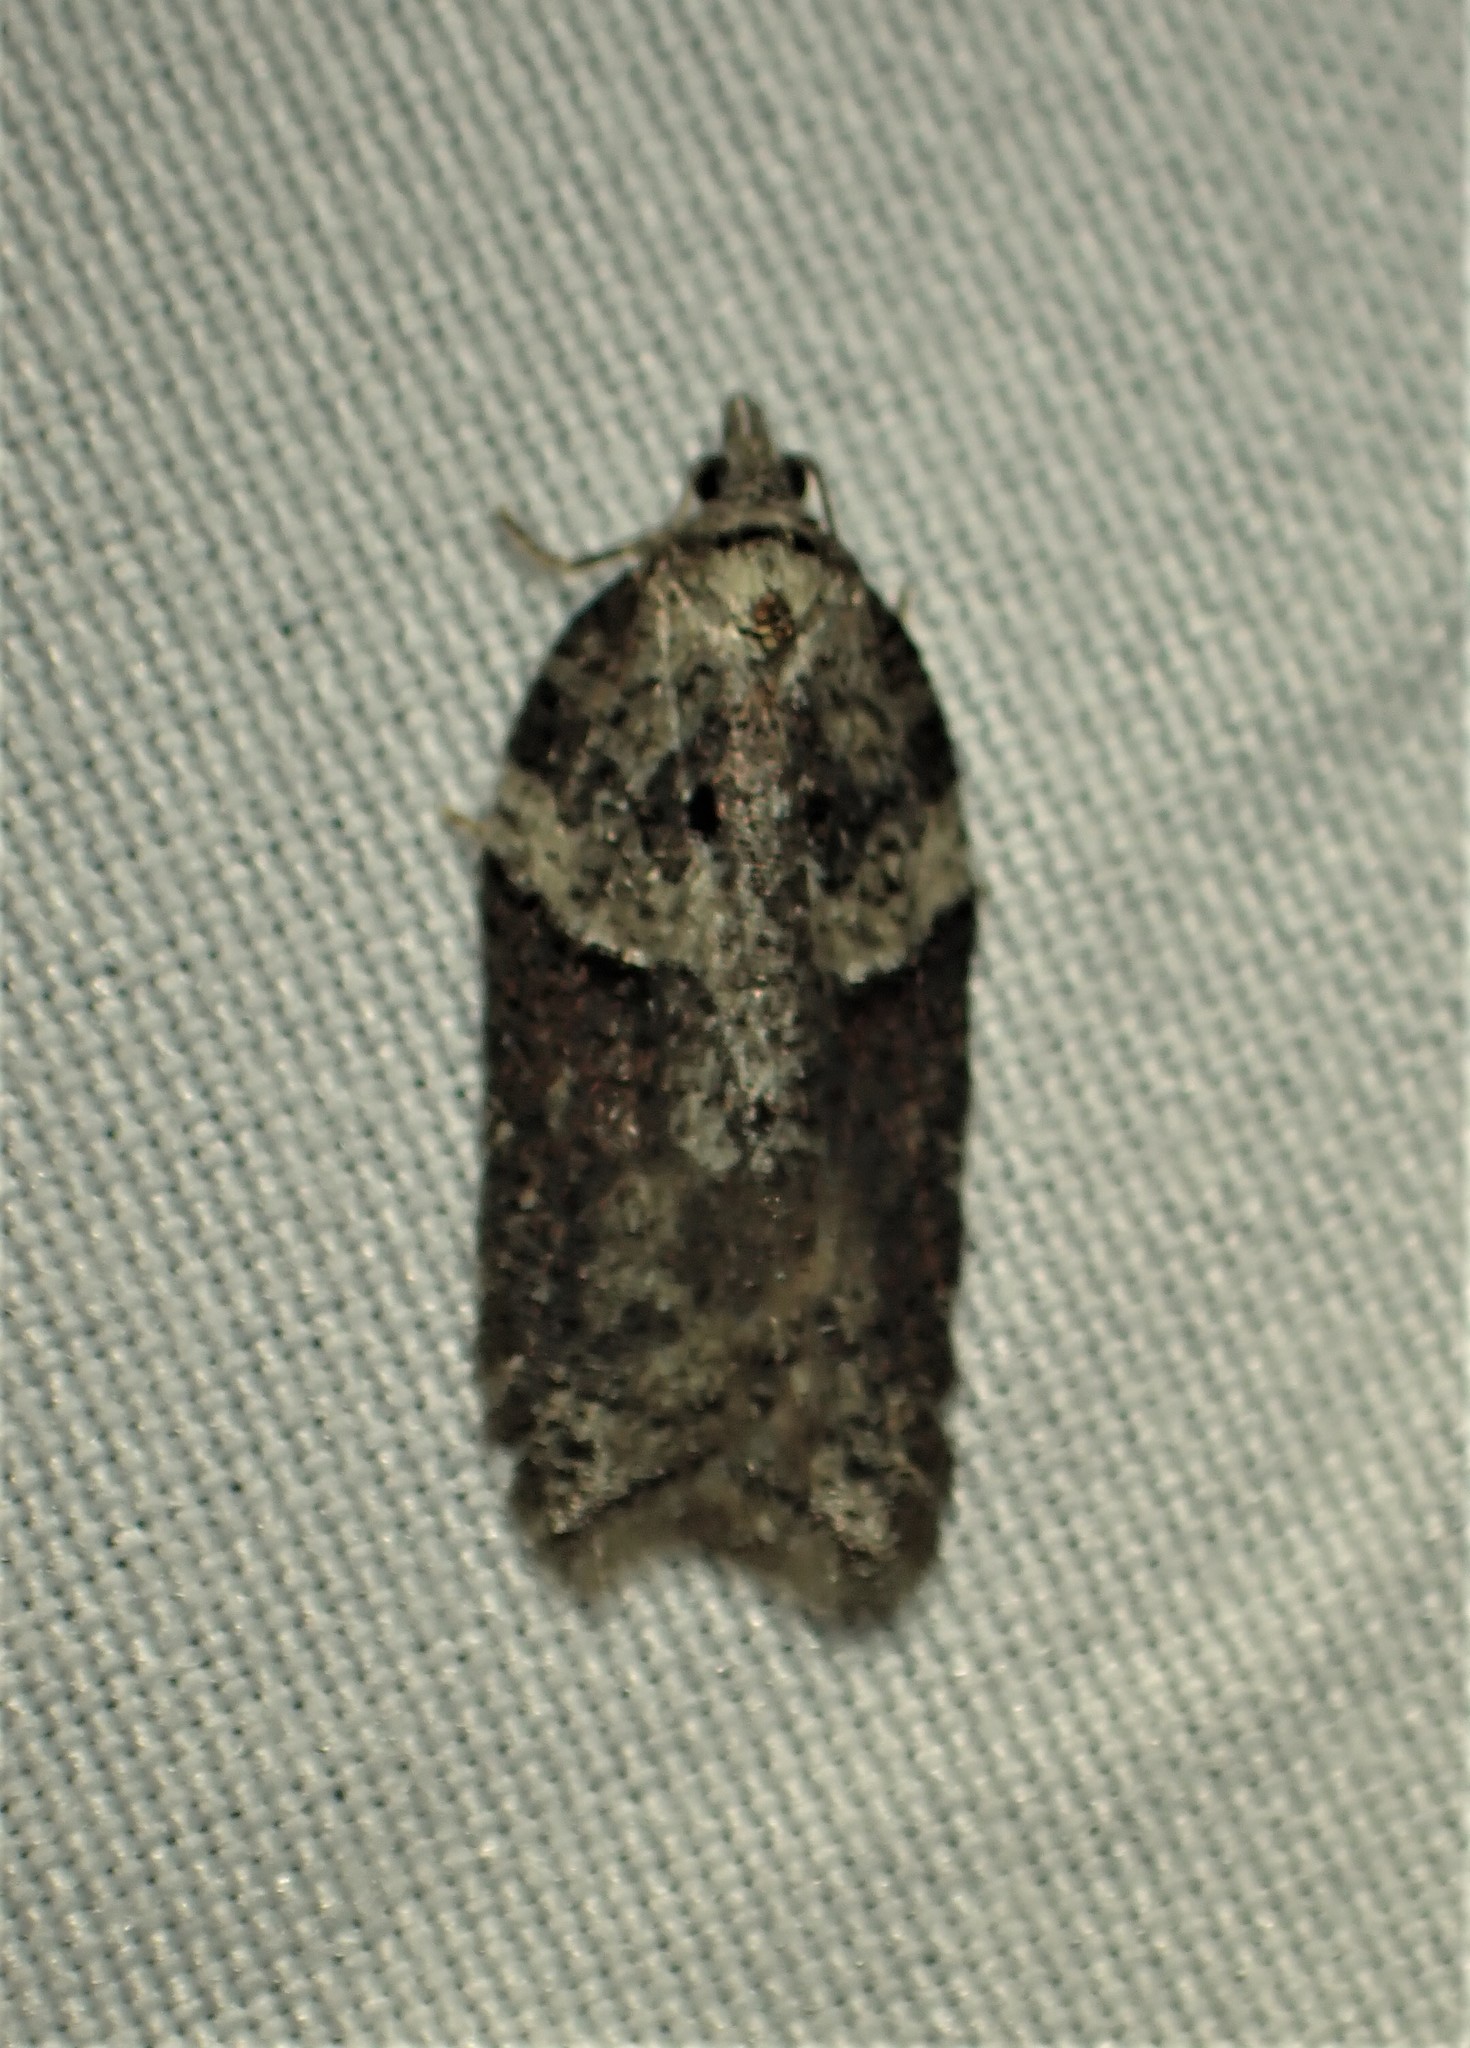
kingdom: Animalia
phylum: Arthropoda
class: Insecta
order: Lepidoptera
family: Tortricidae
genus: Acleris
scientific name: Acleris celiana
